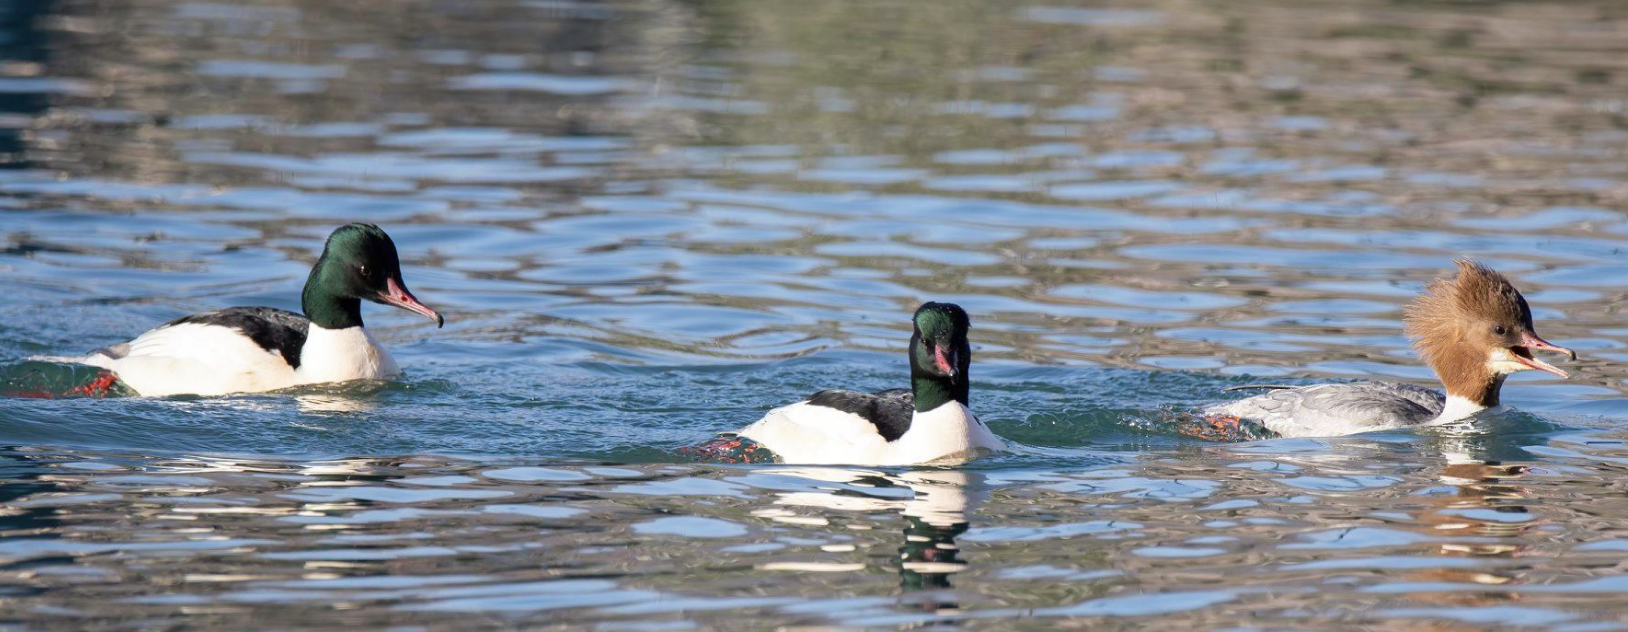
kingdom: Animalia
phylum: Chordata
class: Aves
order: Anseriformes
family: Anatidae
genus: Mergus
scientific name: Mergus merganser
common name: Common merganser
